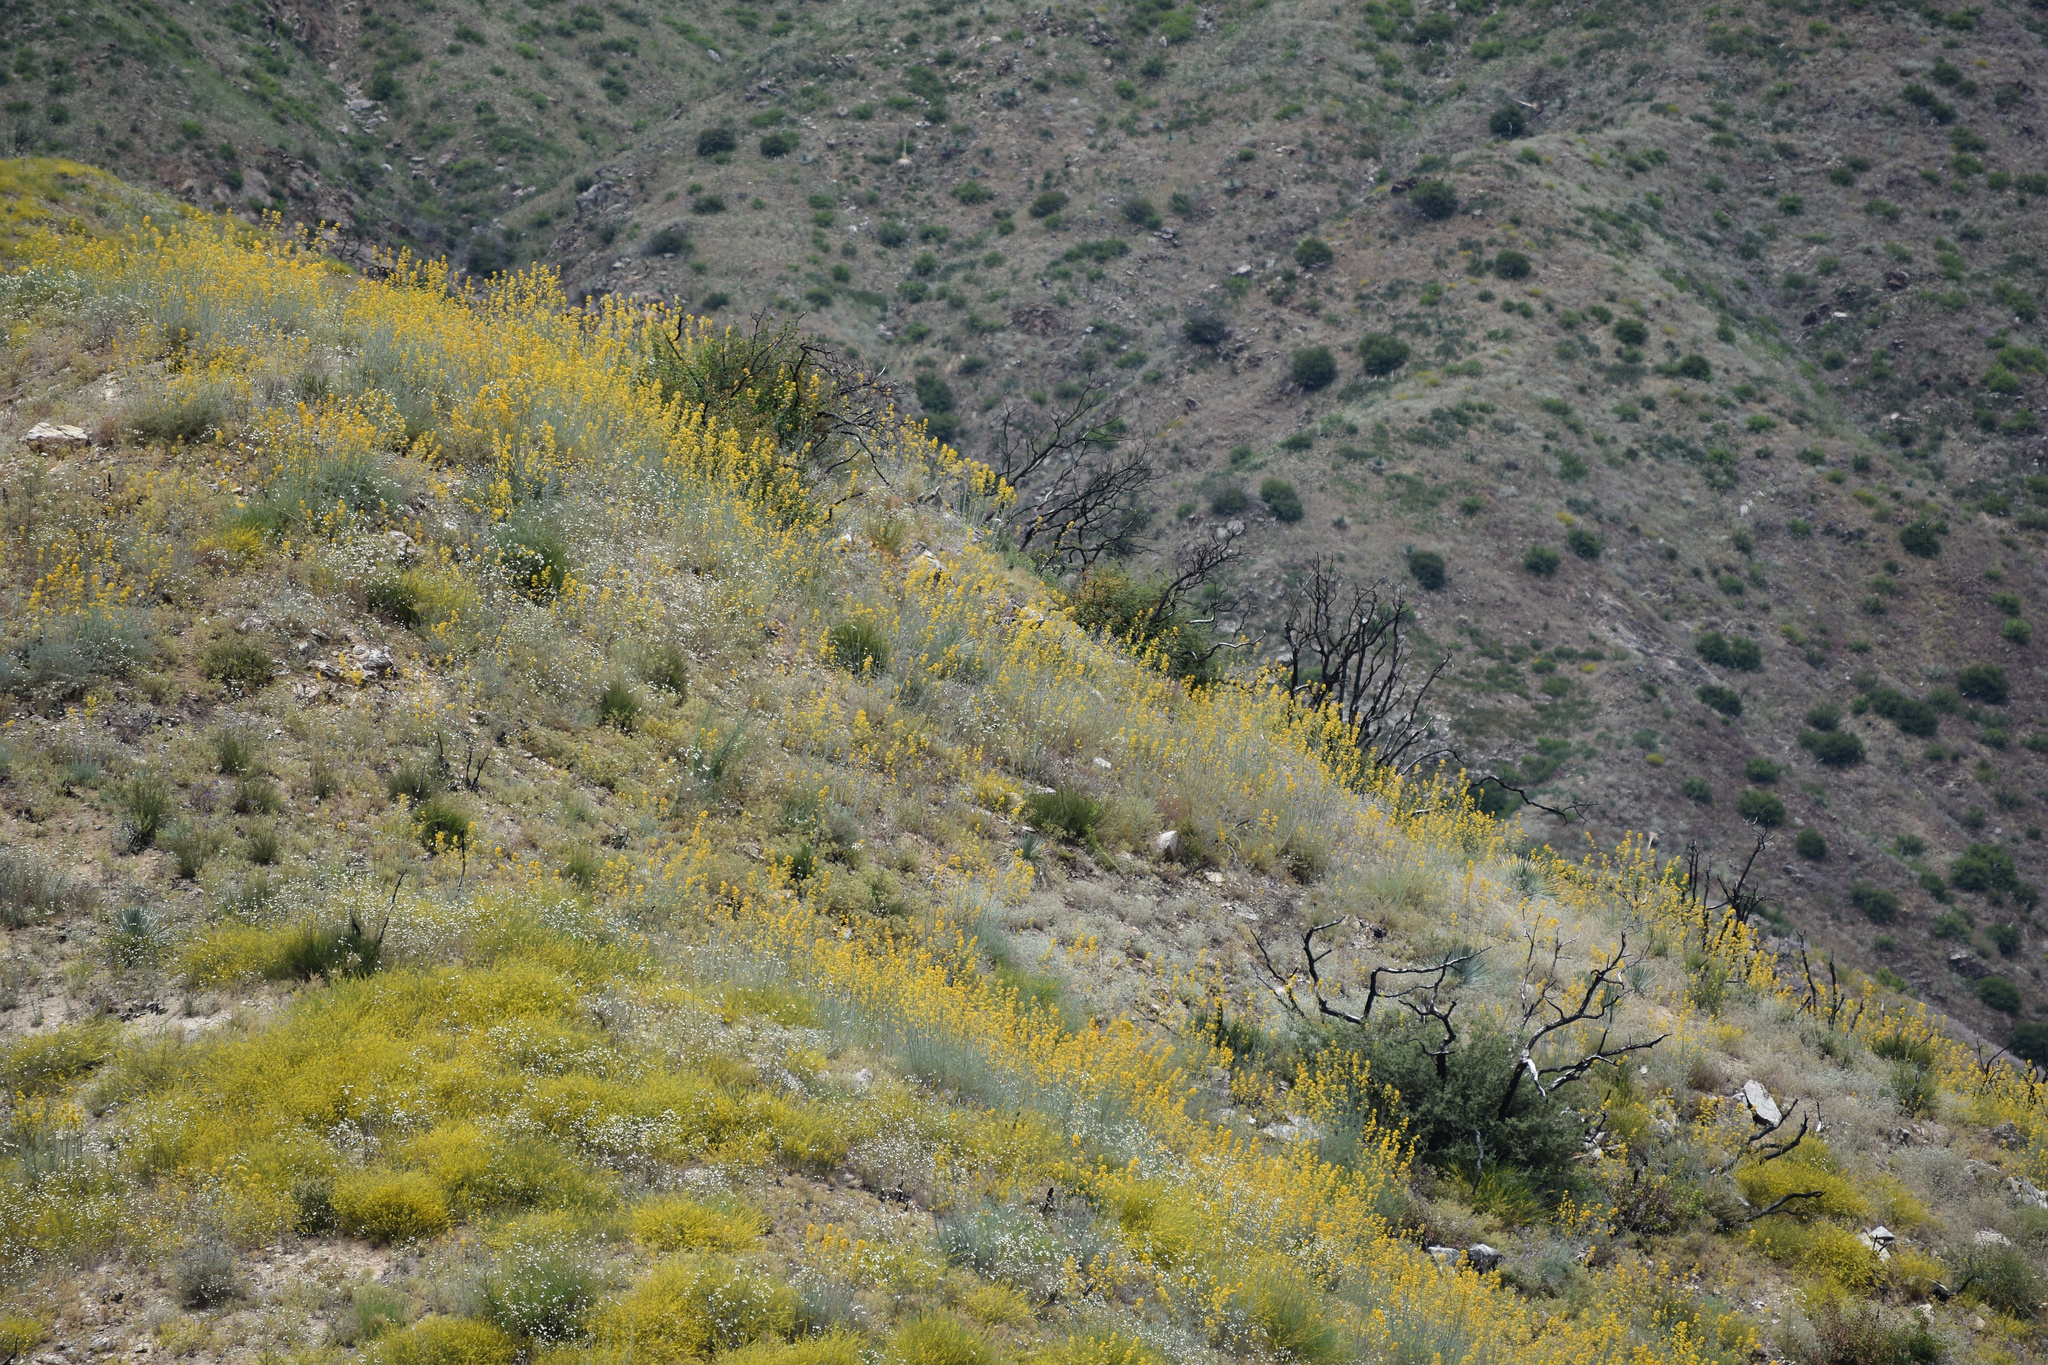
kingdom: Plantae
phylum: Tracheophyta
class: Magnoliopsida
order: Ranunculales
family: Papaveraceae
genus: Ehrendorferia
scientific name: Ehrendorferia chrysantha
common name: Golden eardrops
